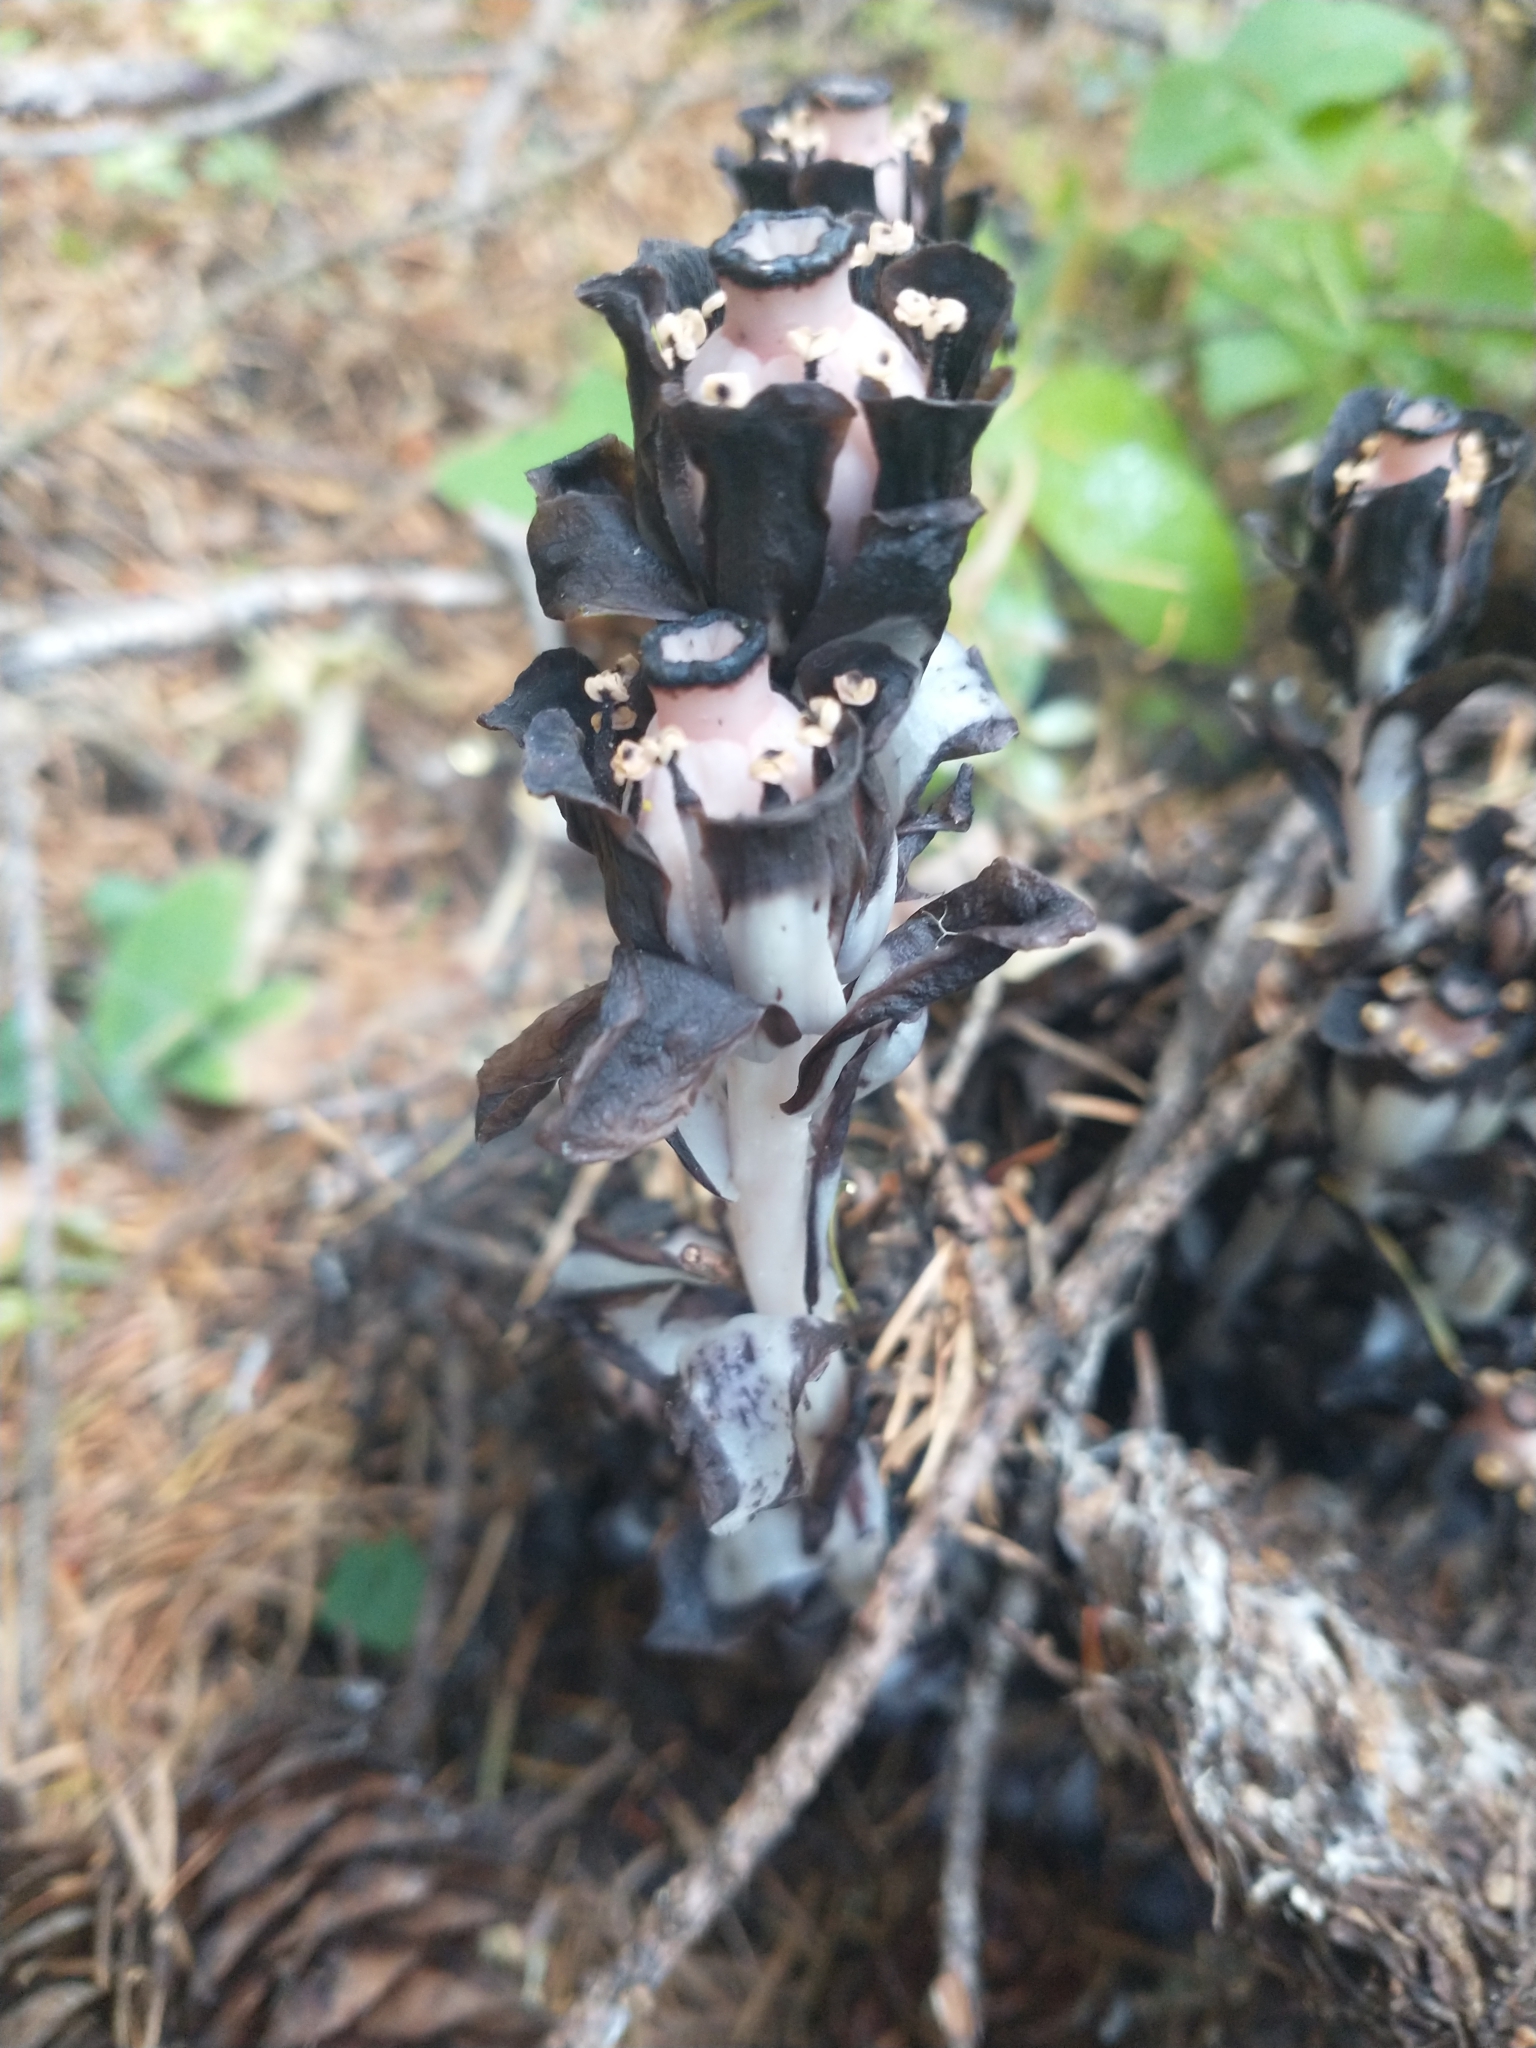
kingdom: Plantae
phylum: Tracheophyta
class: Magnoliopsida
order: Ericales
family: Ericaceae
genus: Monotropa
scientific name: Monotropa uniflora
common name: Convulsion root
